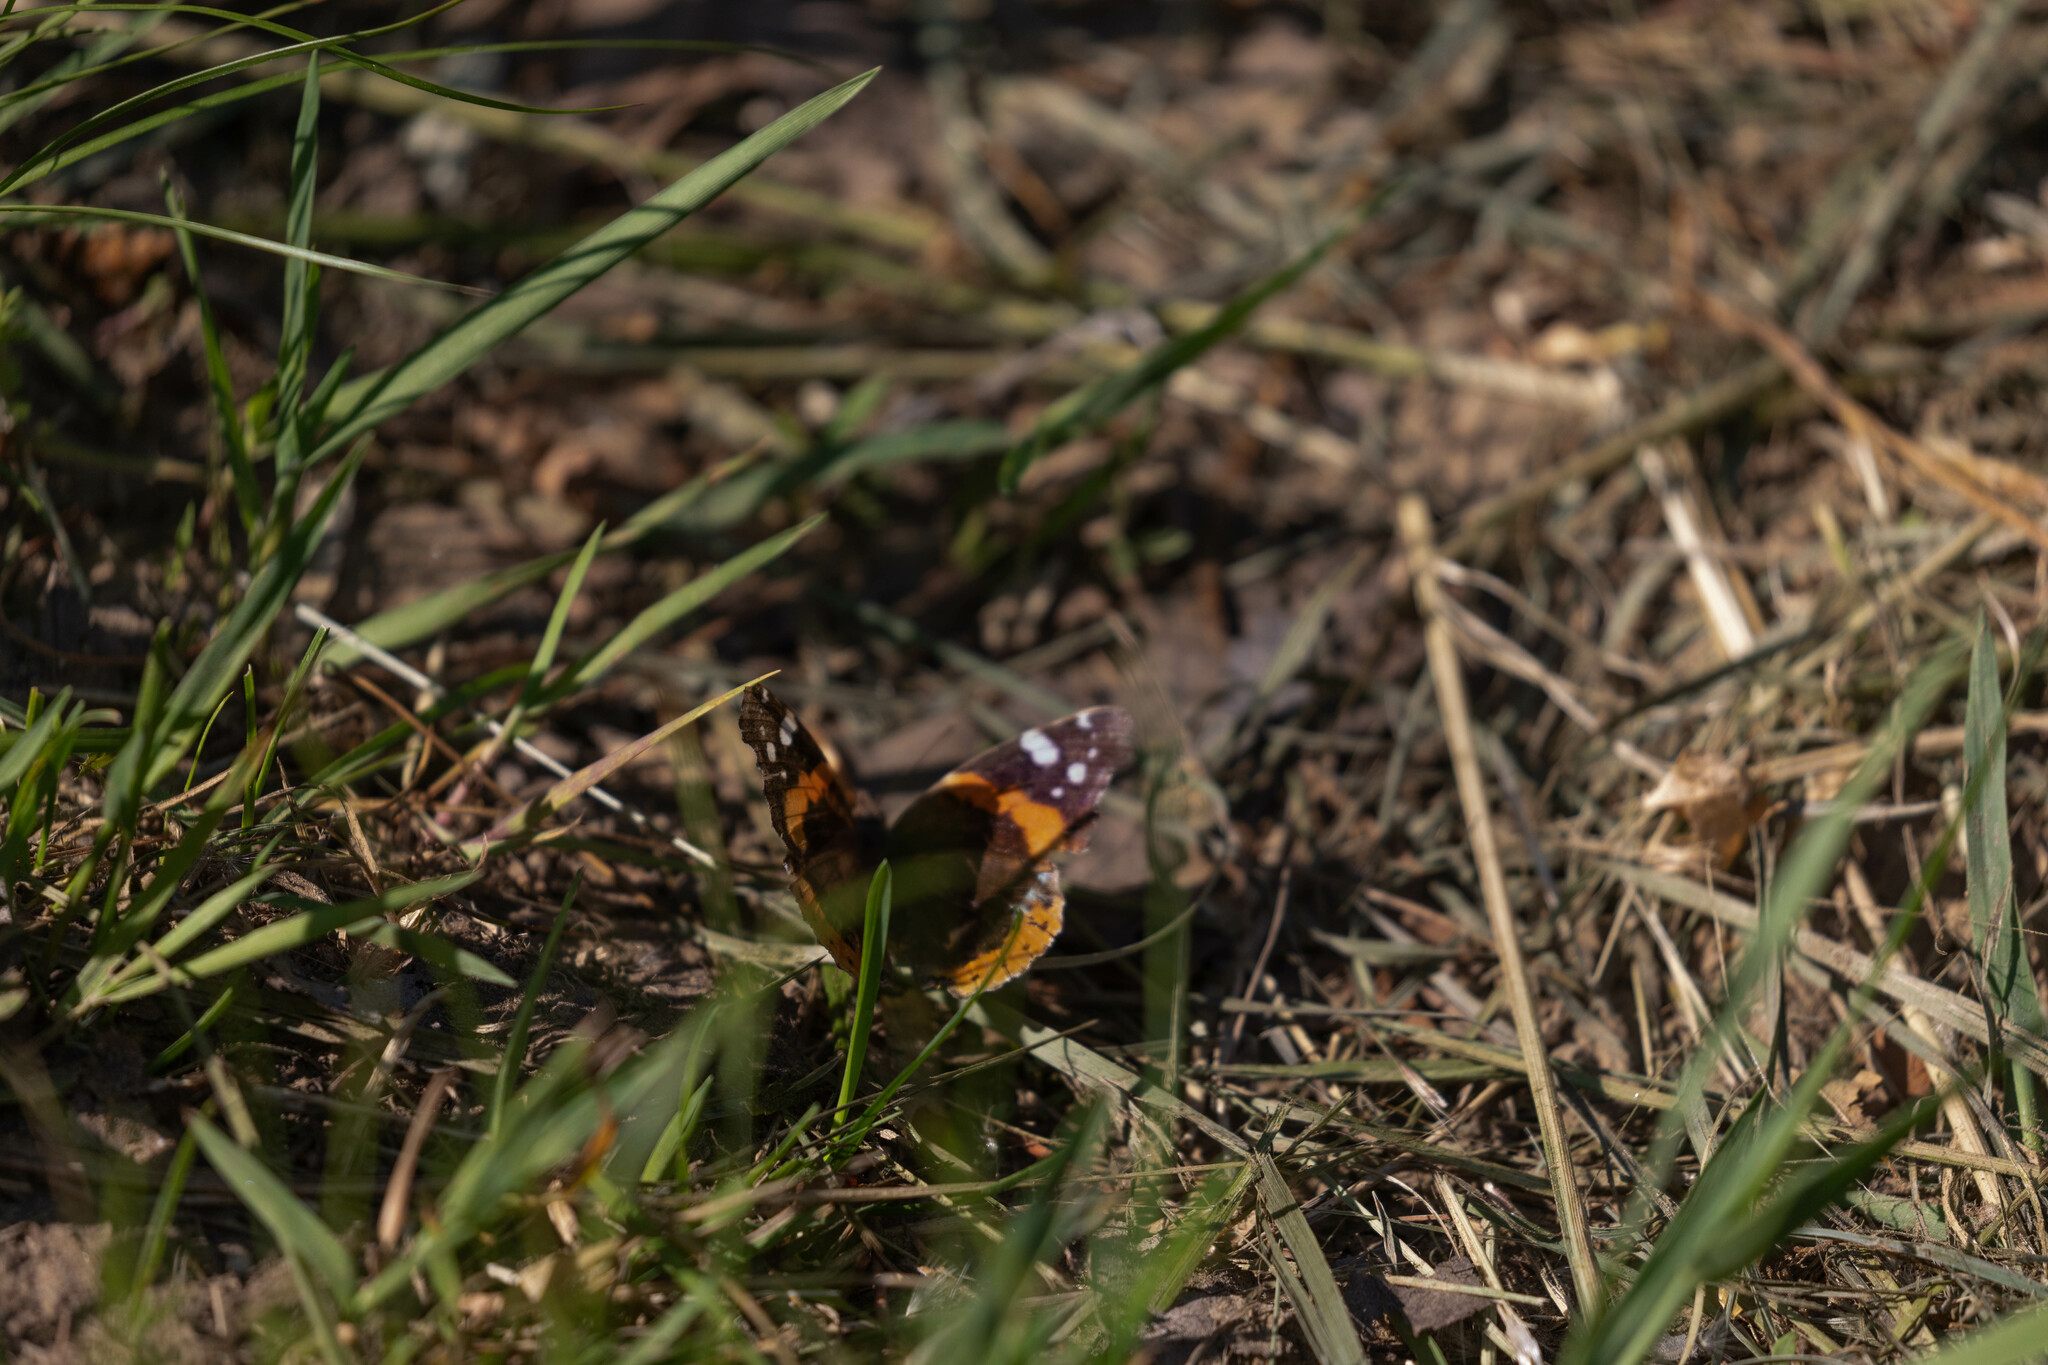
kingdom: Animalia
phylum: Arthropoda
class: Insecta
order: Lepidoptera
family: Nymphalidae
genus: Vanessa
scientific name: Vanessa atalanta
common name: Red admiral
